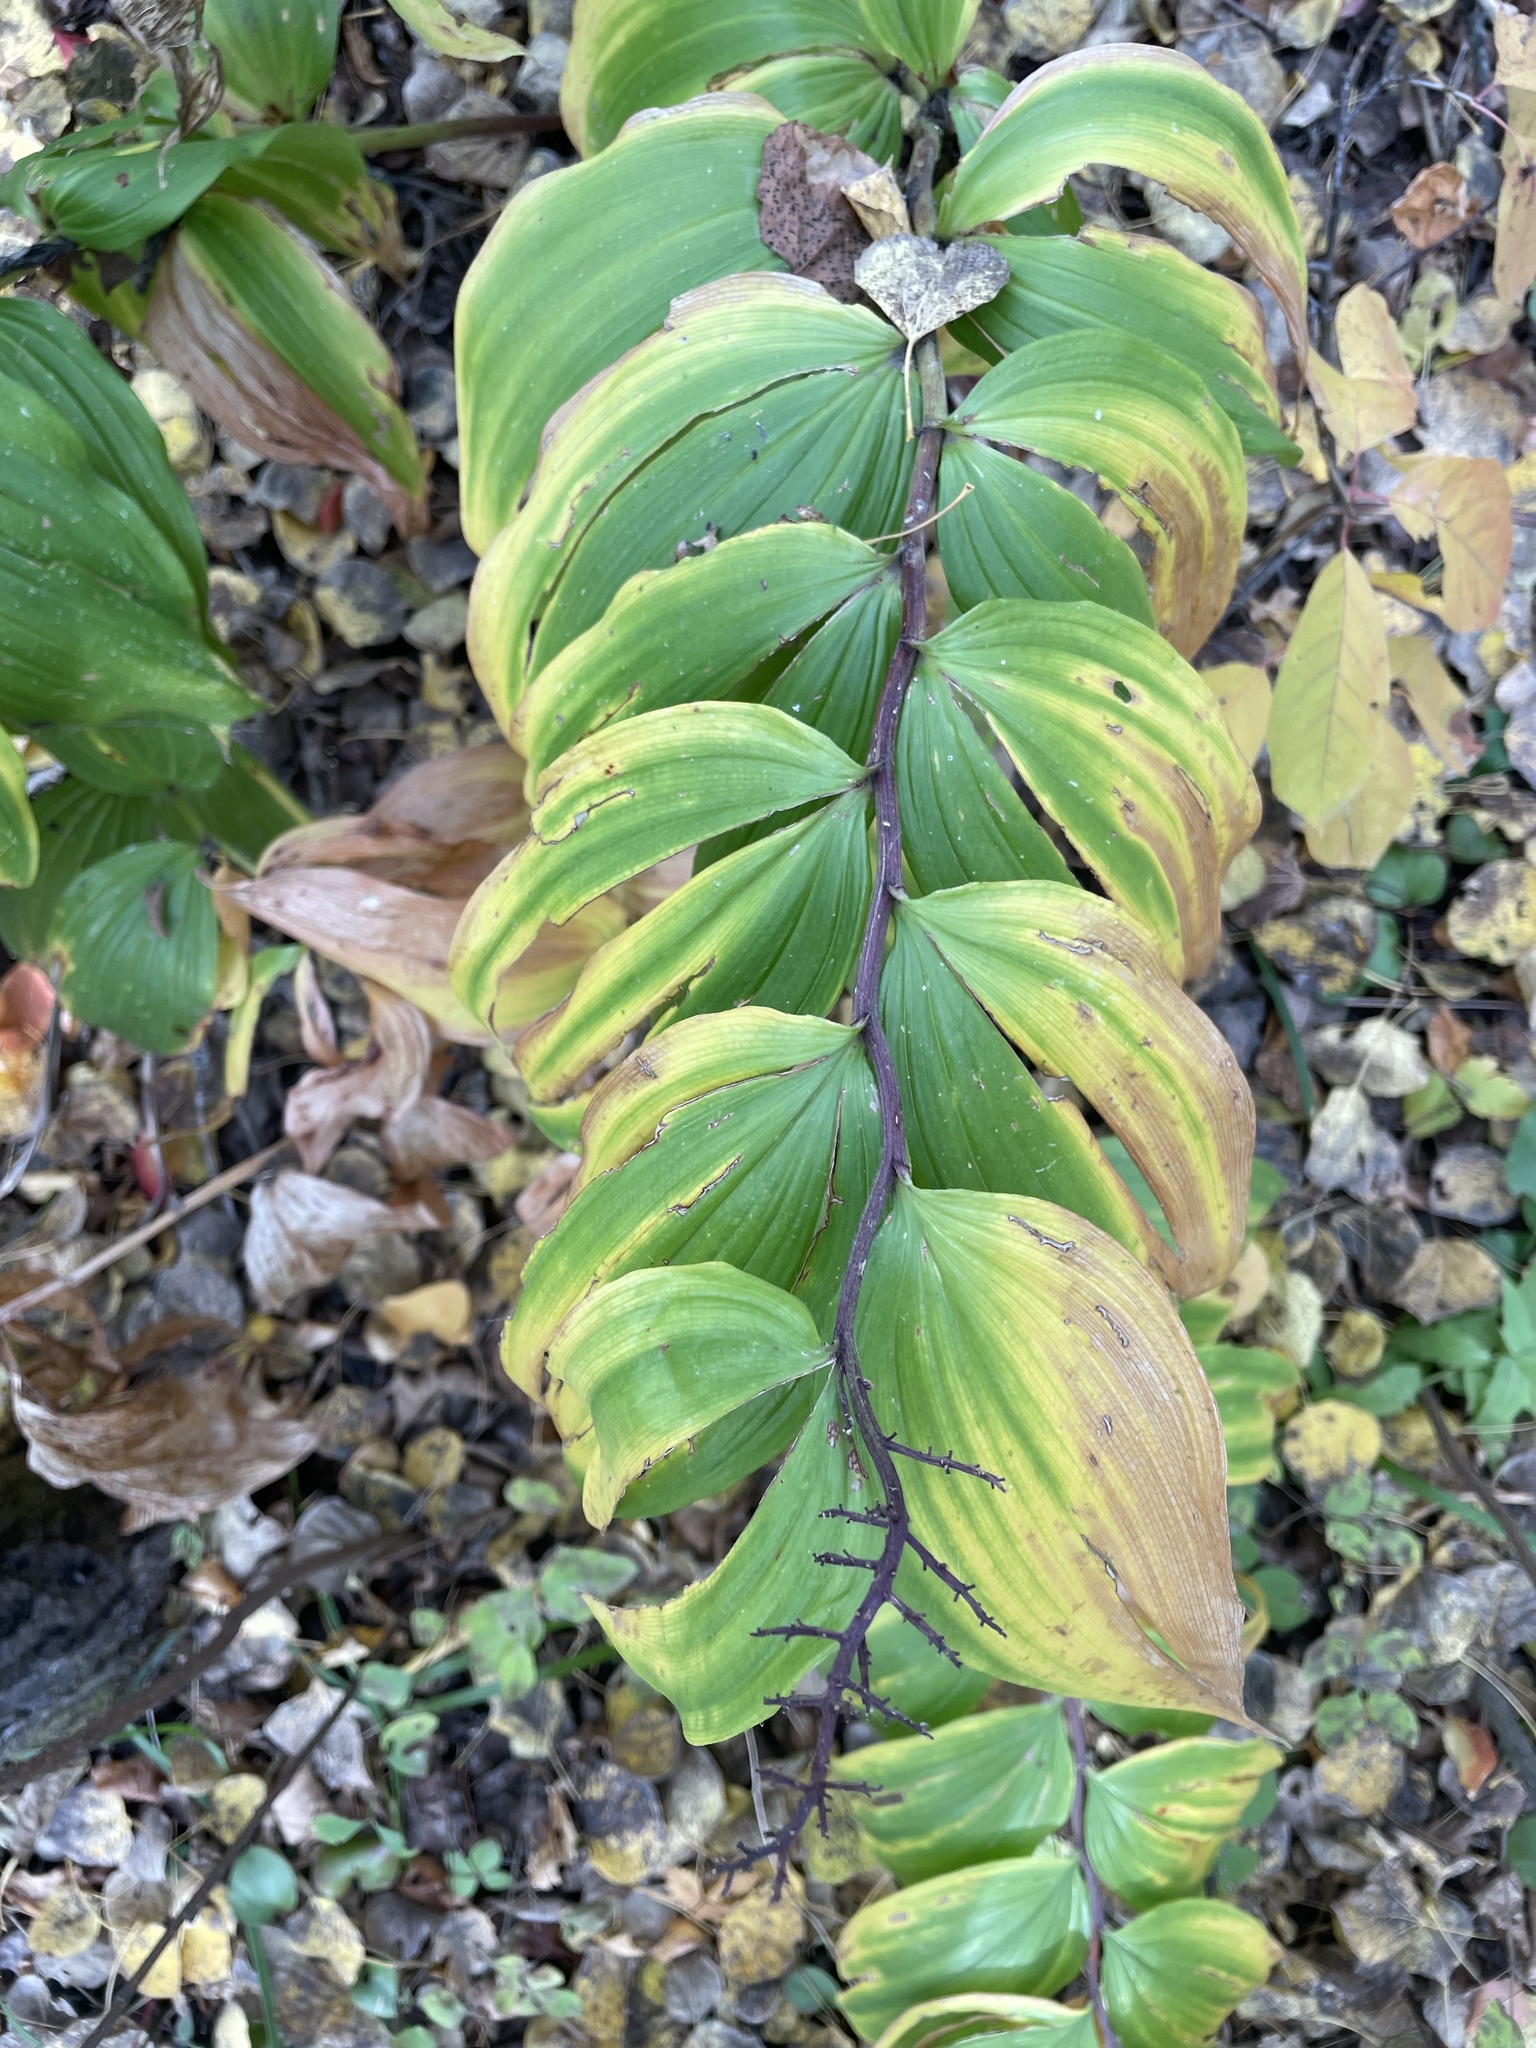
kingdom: Plantae
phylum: Tracheophyta
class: Liliopsida
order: Asparagales
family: Asparagaceae
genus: Maianthemum
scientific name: Maianthemum racemosum
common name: False spikenard
